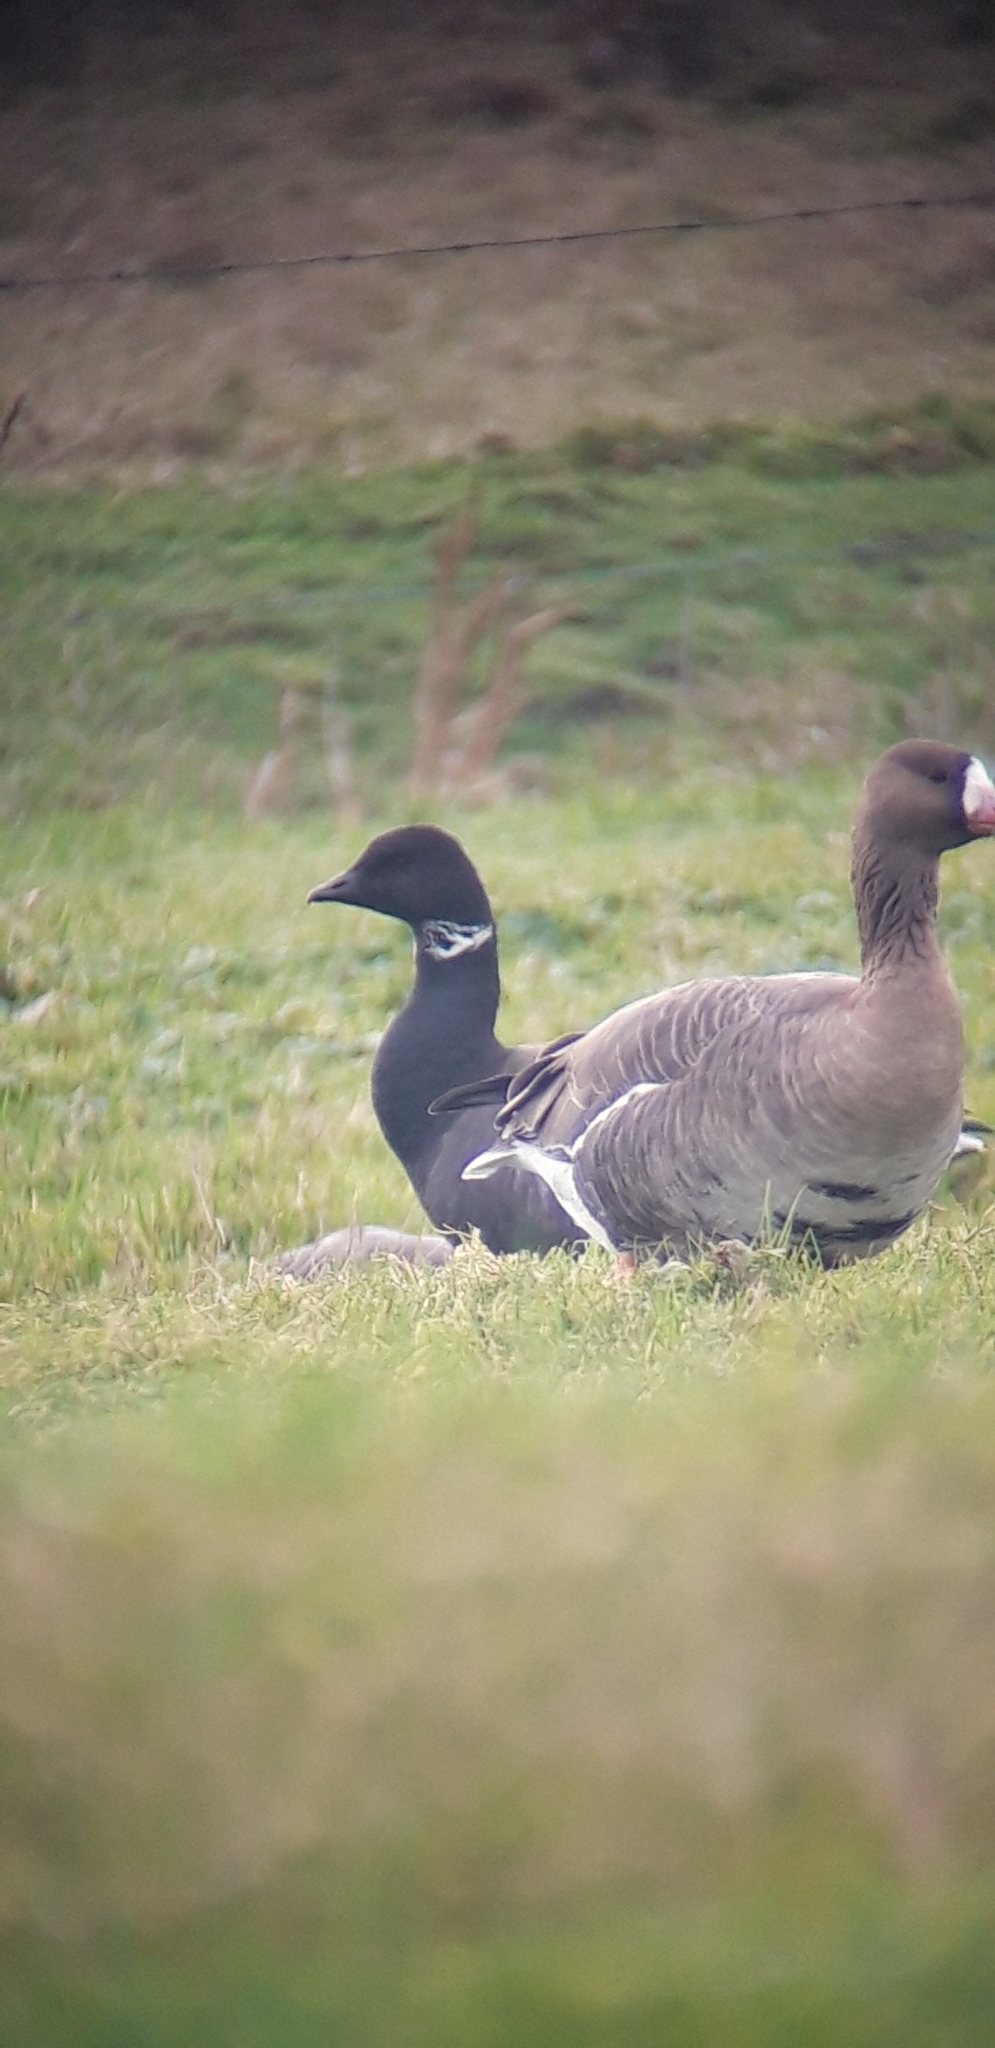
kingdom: Animalia
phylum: Chordata
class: Aves
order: Anseriformes
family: Anatidae
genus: Anser
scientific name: Anser albifrons
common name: Greater white-fronted goose
